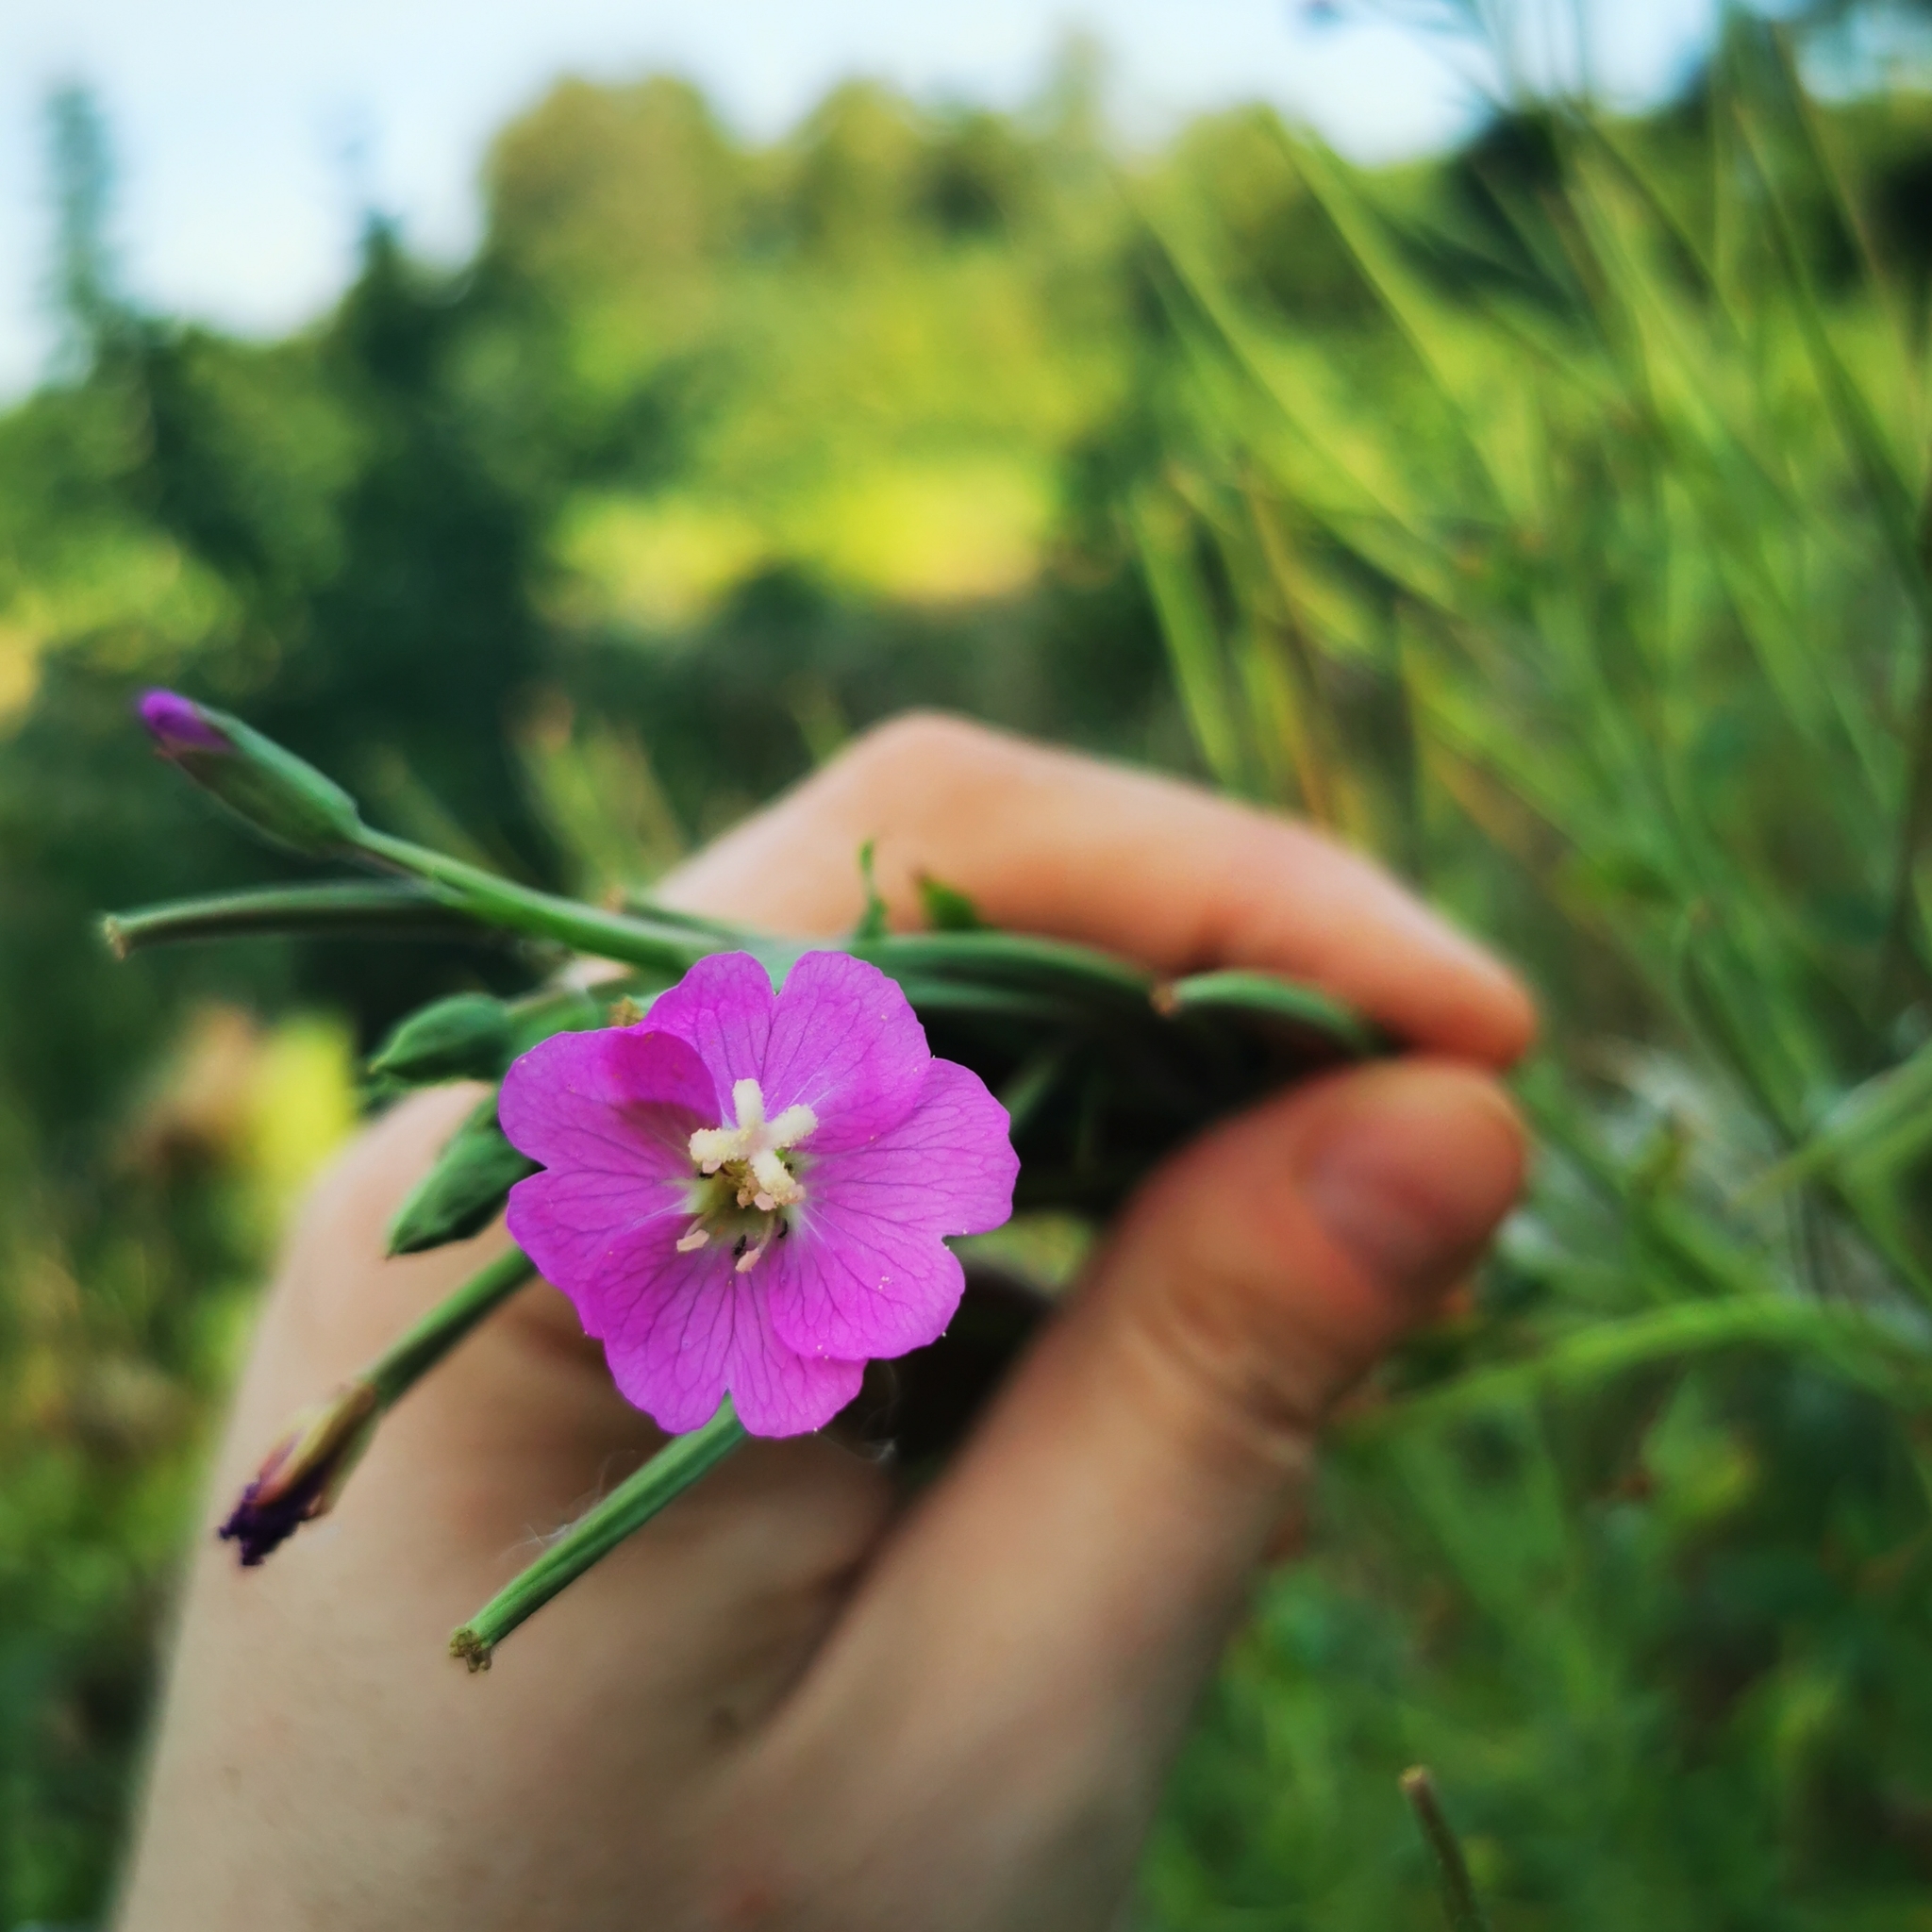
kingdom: Plantae
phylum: Tracheophyta
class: Magnoliopsida
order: Myrtales
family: Onagraceae
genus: Epilobium
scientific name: Epilobium hirsutum
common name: Great willowherb
